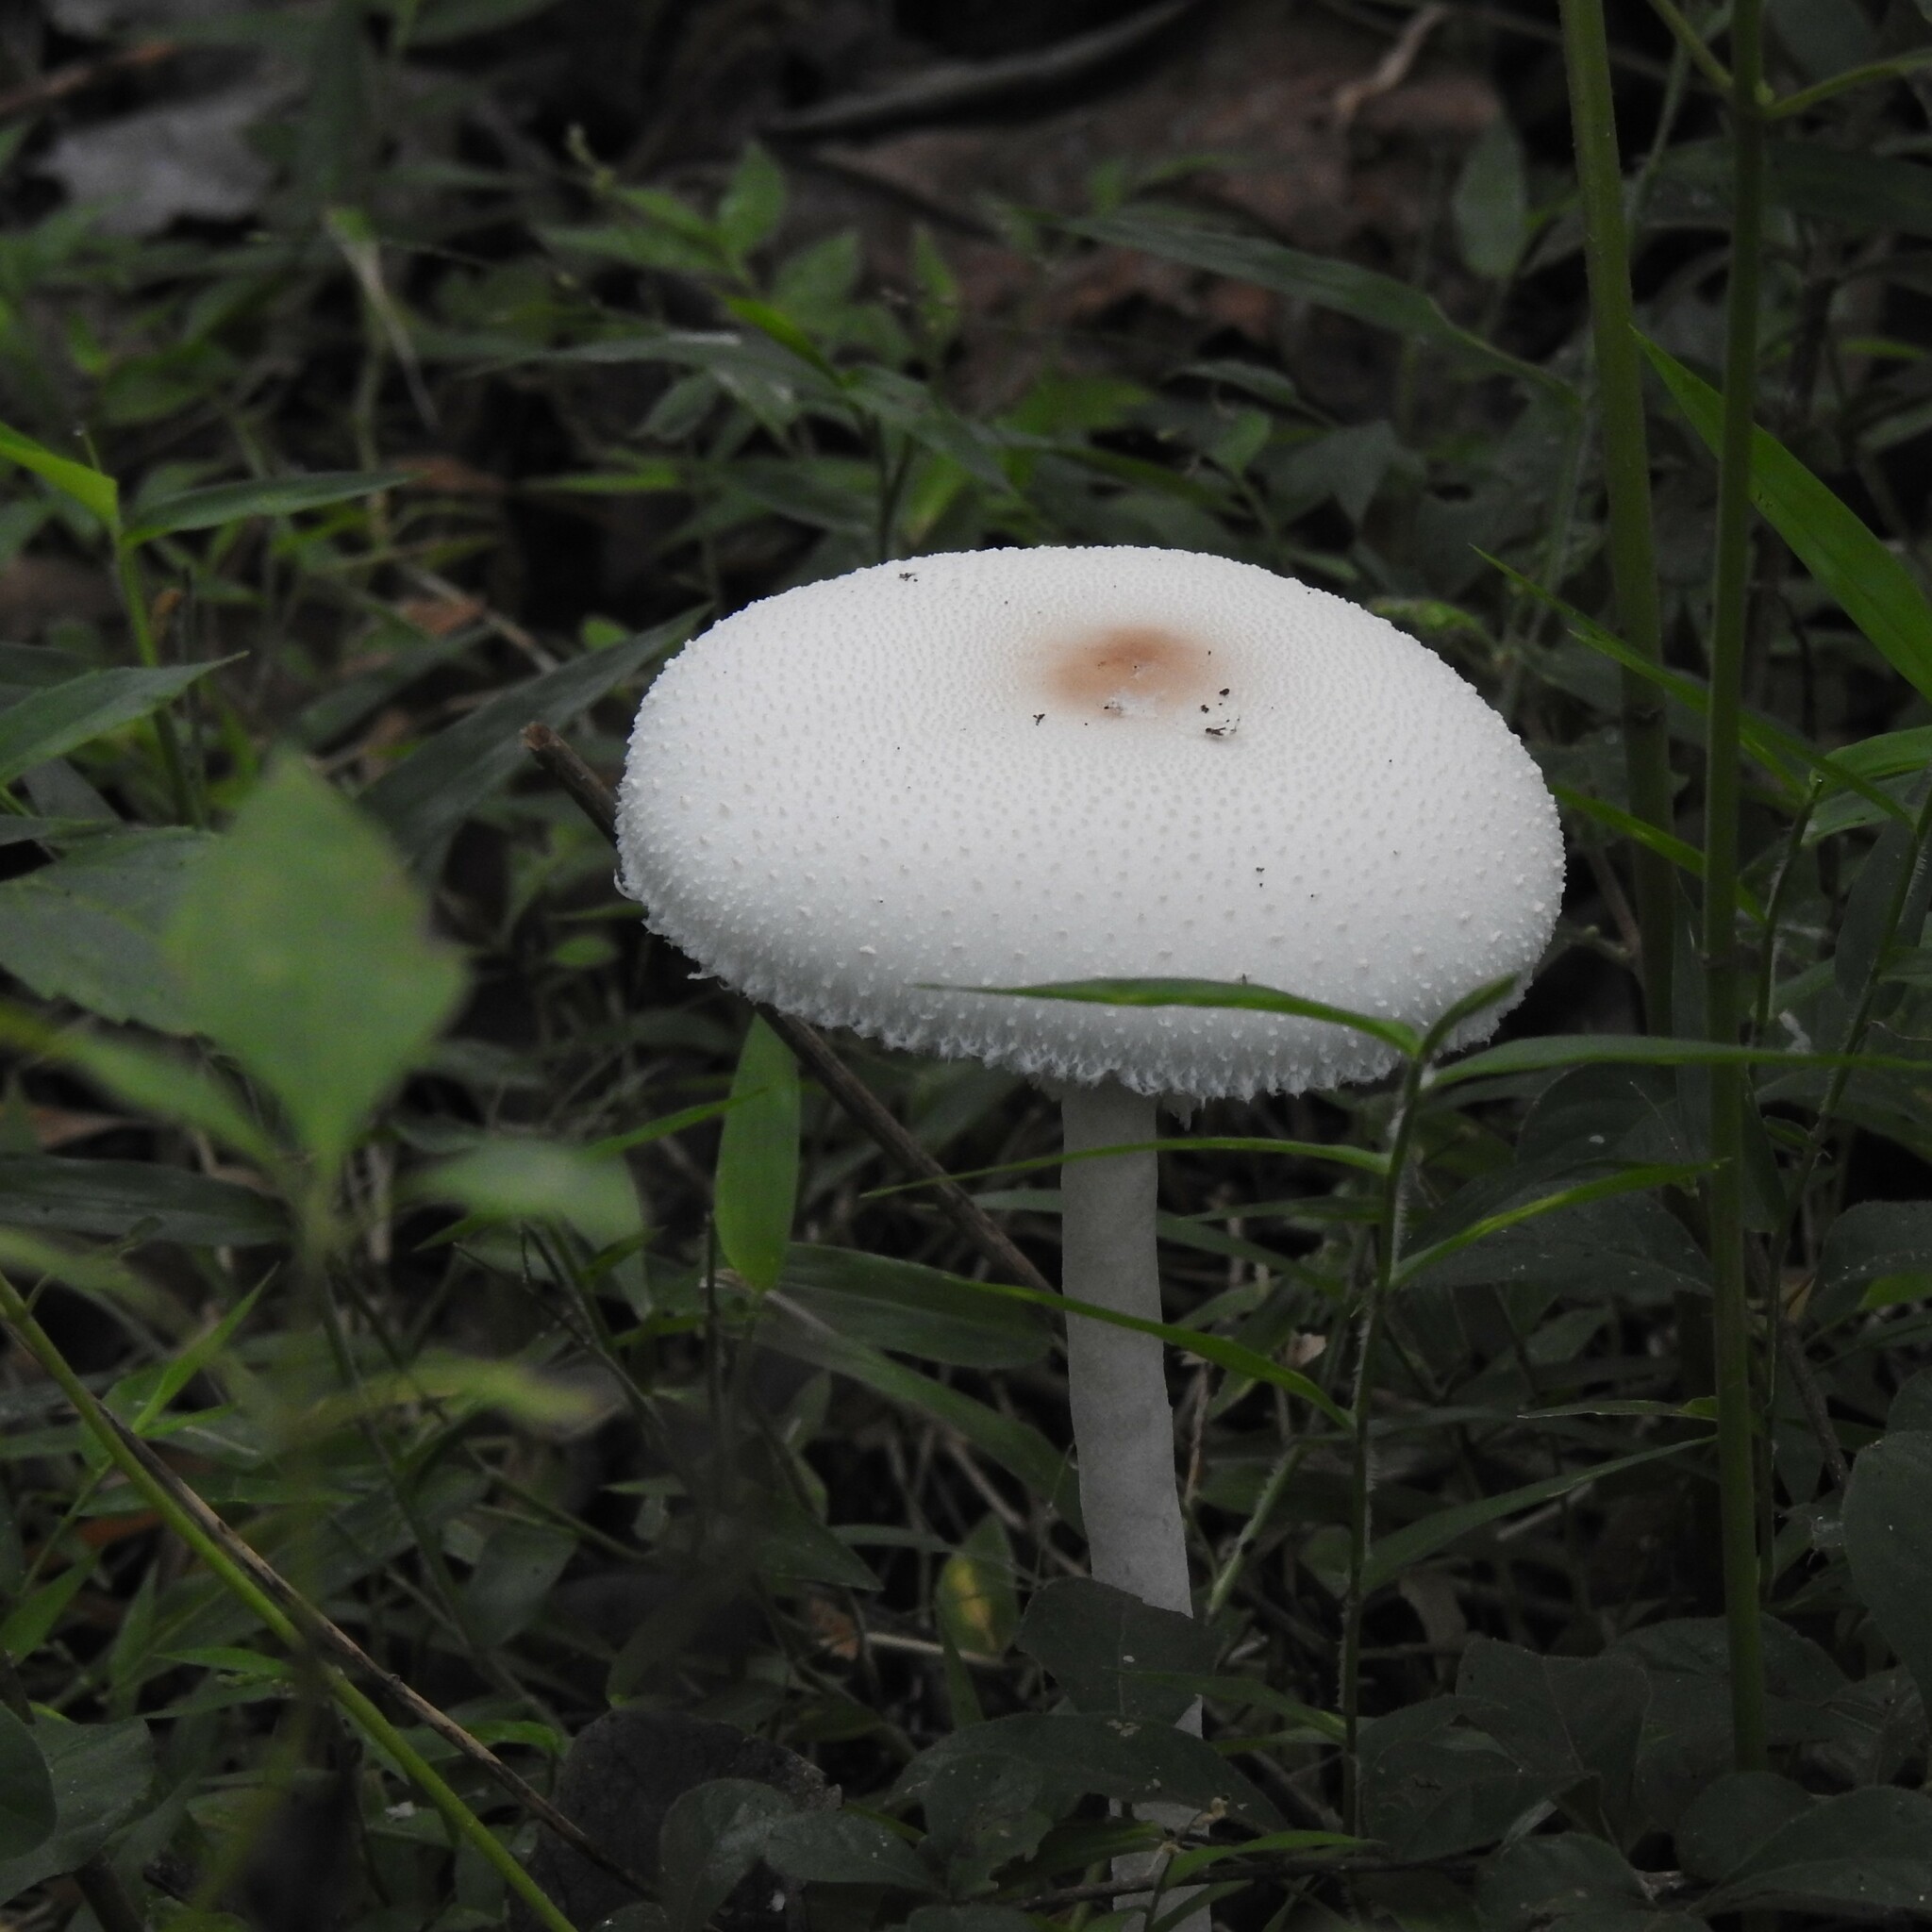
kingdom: Fungi
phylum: Basidiomycota
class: Agaricomycetes
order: Agaricales
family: Agaricaceae
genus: Macrolepiota
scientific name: Macrolepiota dolichaula
